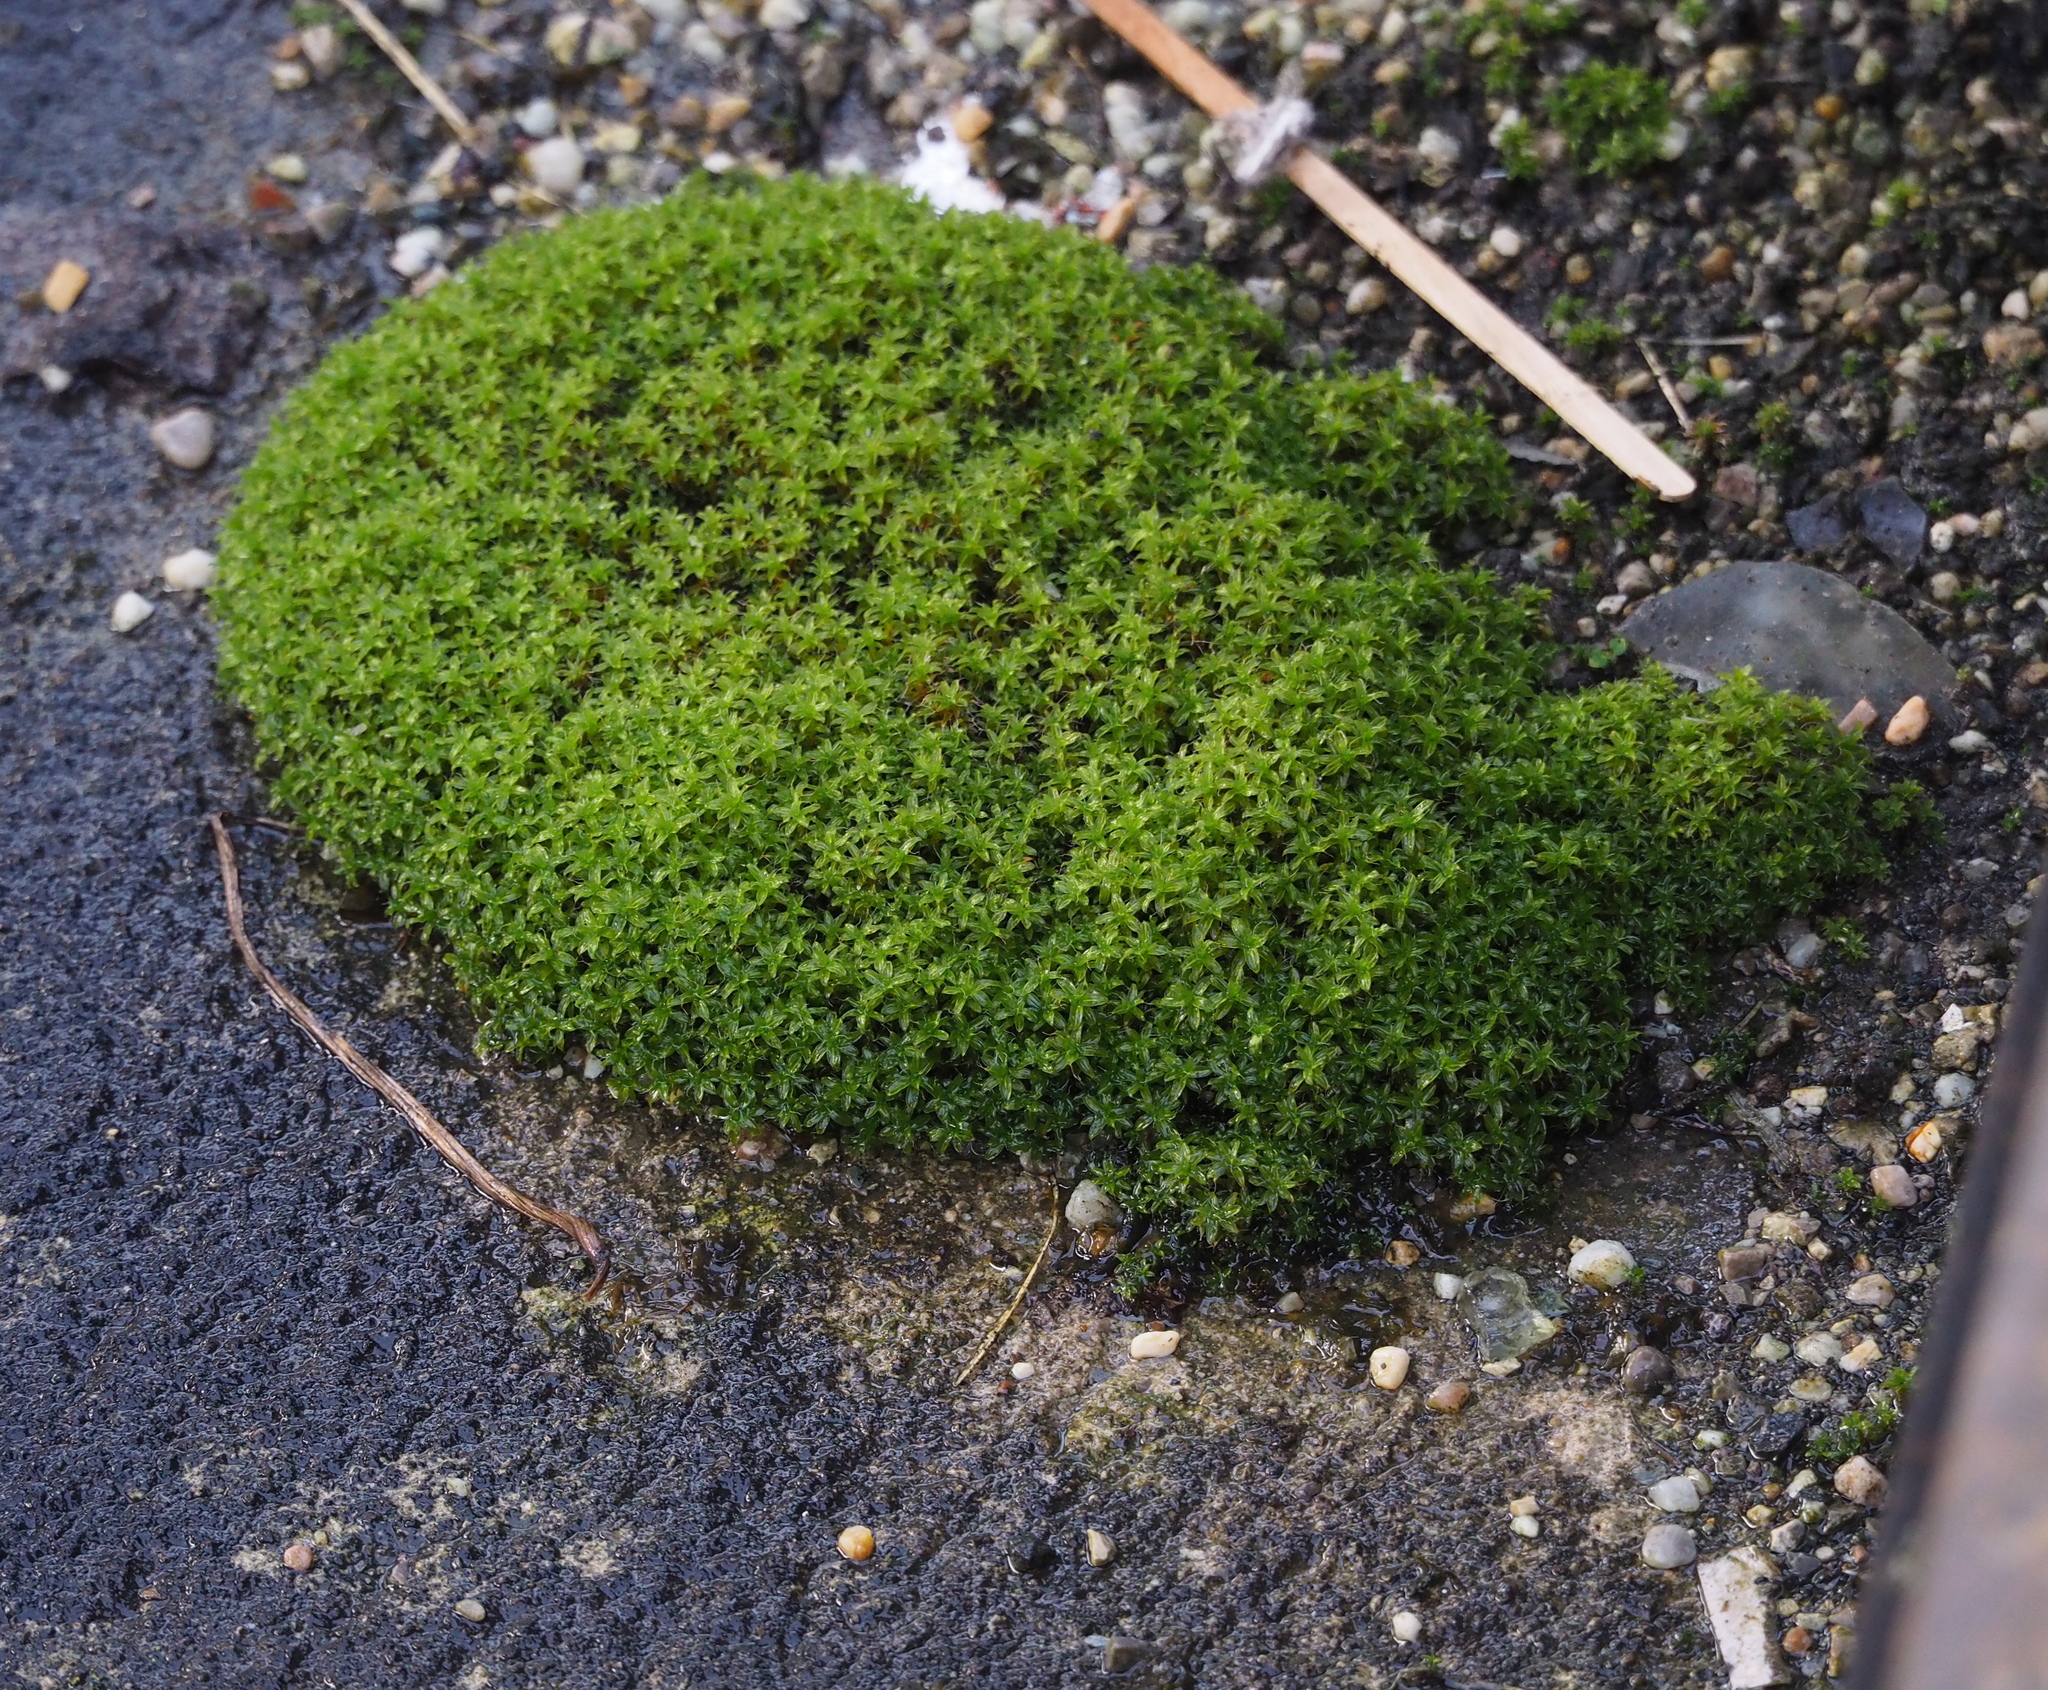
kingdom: Plantae
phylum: Bryophyta
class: Bryopsida
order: Pottiales
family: Pottiaceae
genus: Syntrichia
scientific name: Syntrichia ruralis
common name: Sidewalk screw moss
